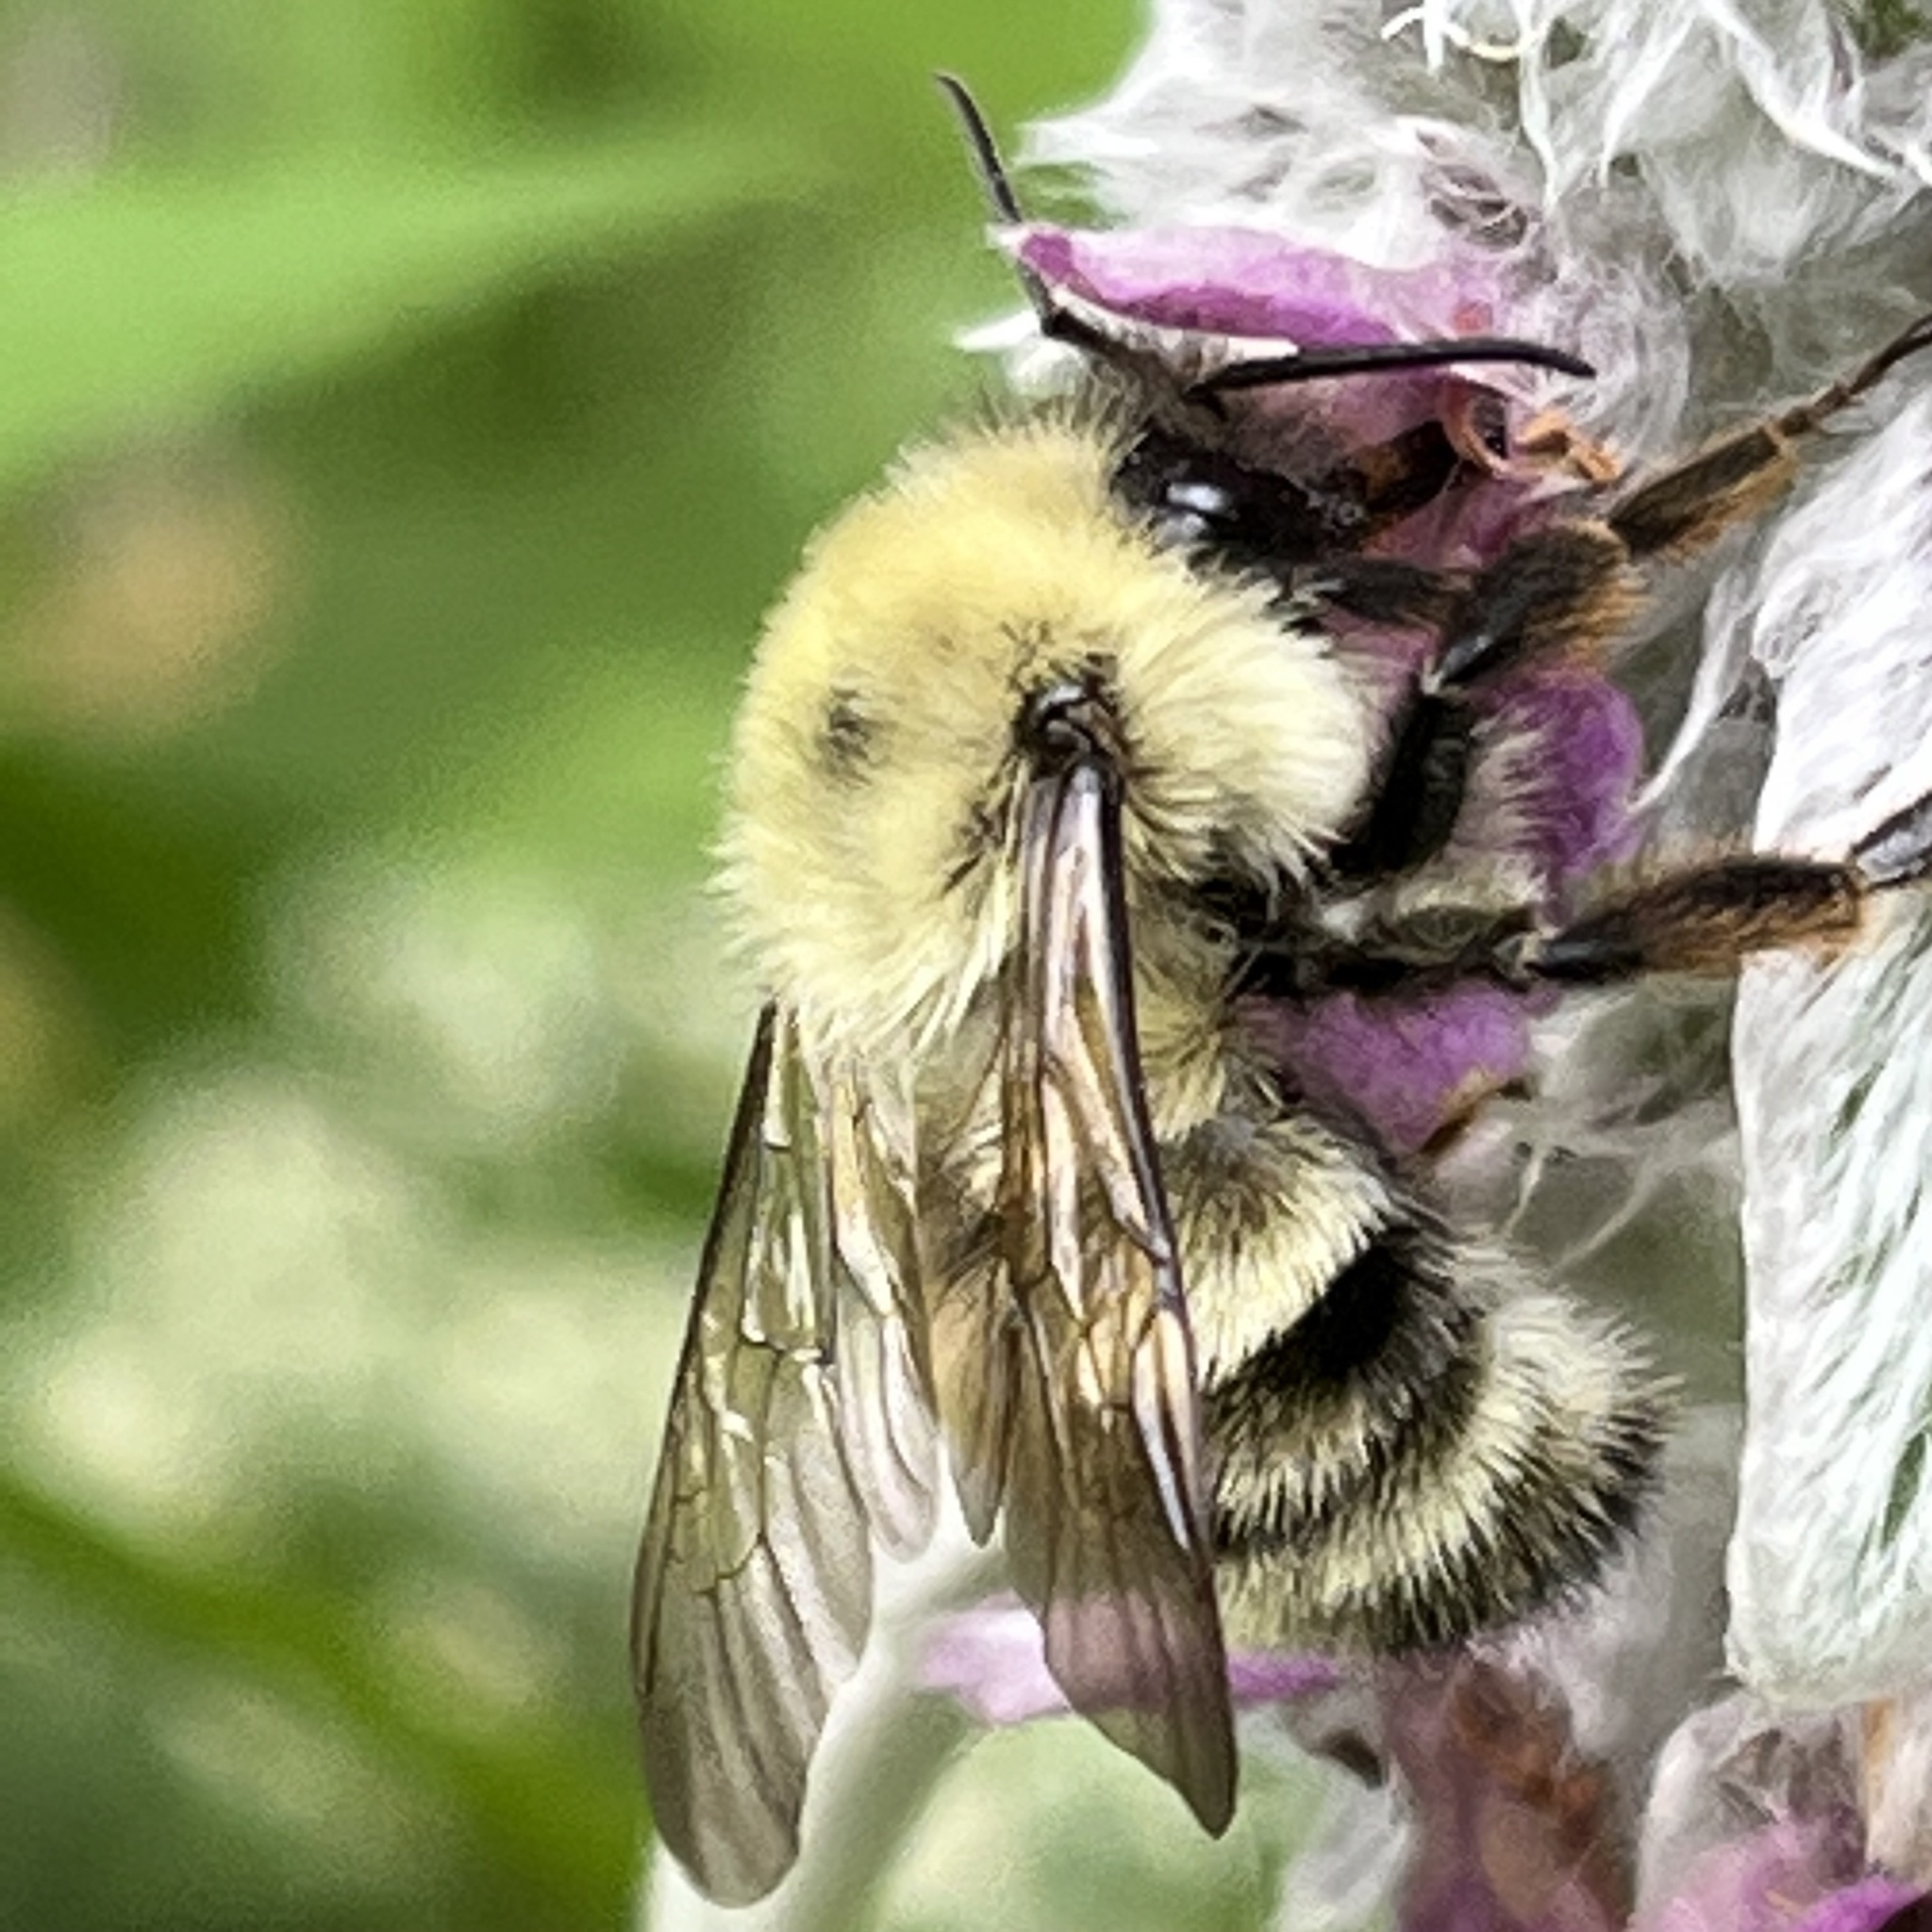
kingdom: Animalia
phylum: Arthropoda
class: Insecta
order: Hymenoptera
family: Apidae
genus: Bombus
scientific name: Bombus bimaculatus
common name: Two-spotted bumble bee
